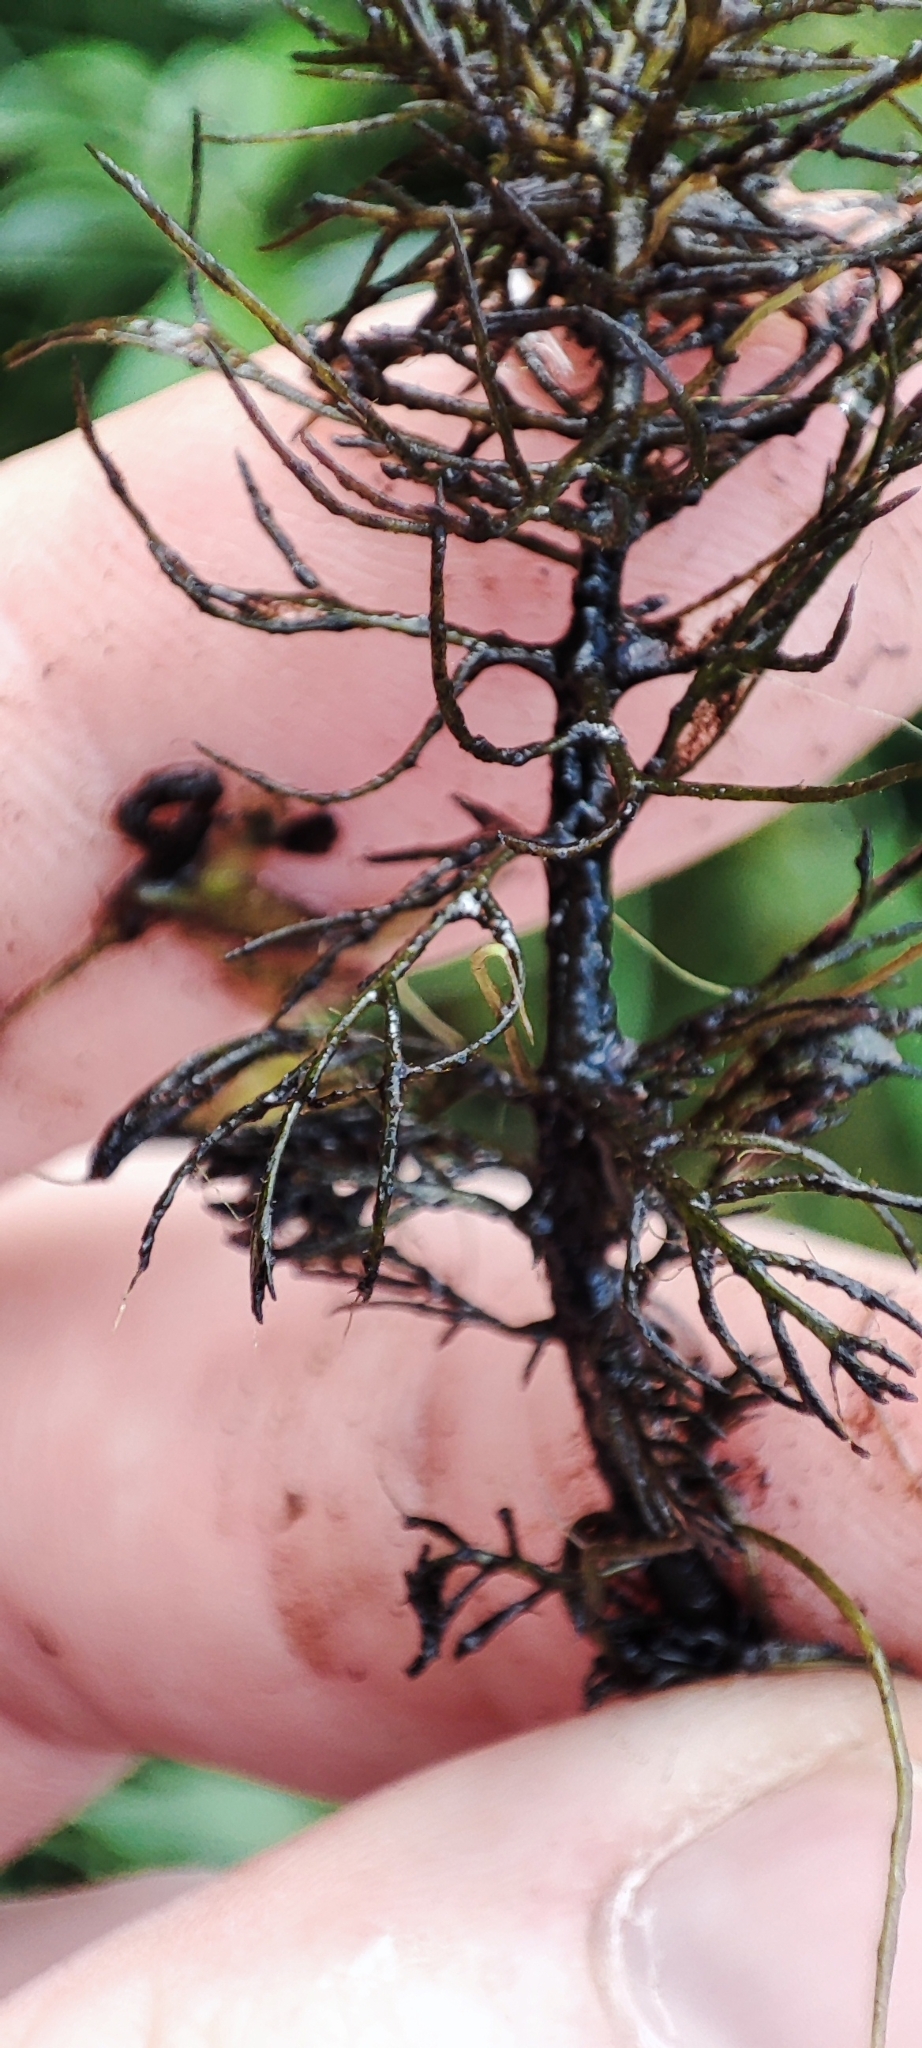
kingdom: Plantae
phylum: Tracheophyta
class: Magnoliopsida
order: Lamiales
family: Lentibulariaceae
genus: Utricularia
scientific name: Utricularia australis
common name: Bladderwort
